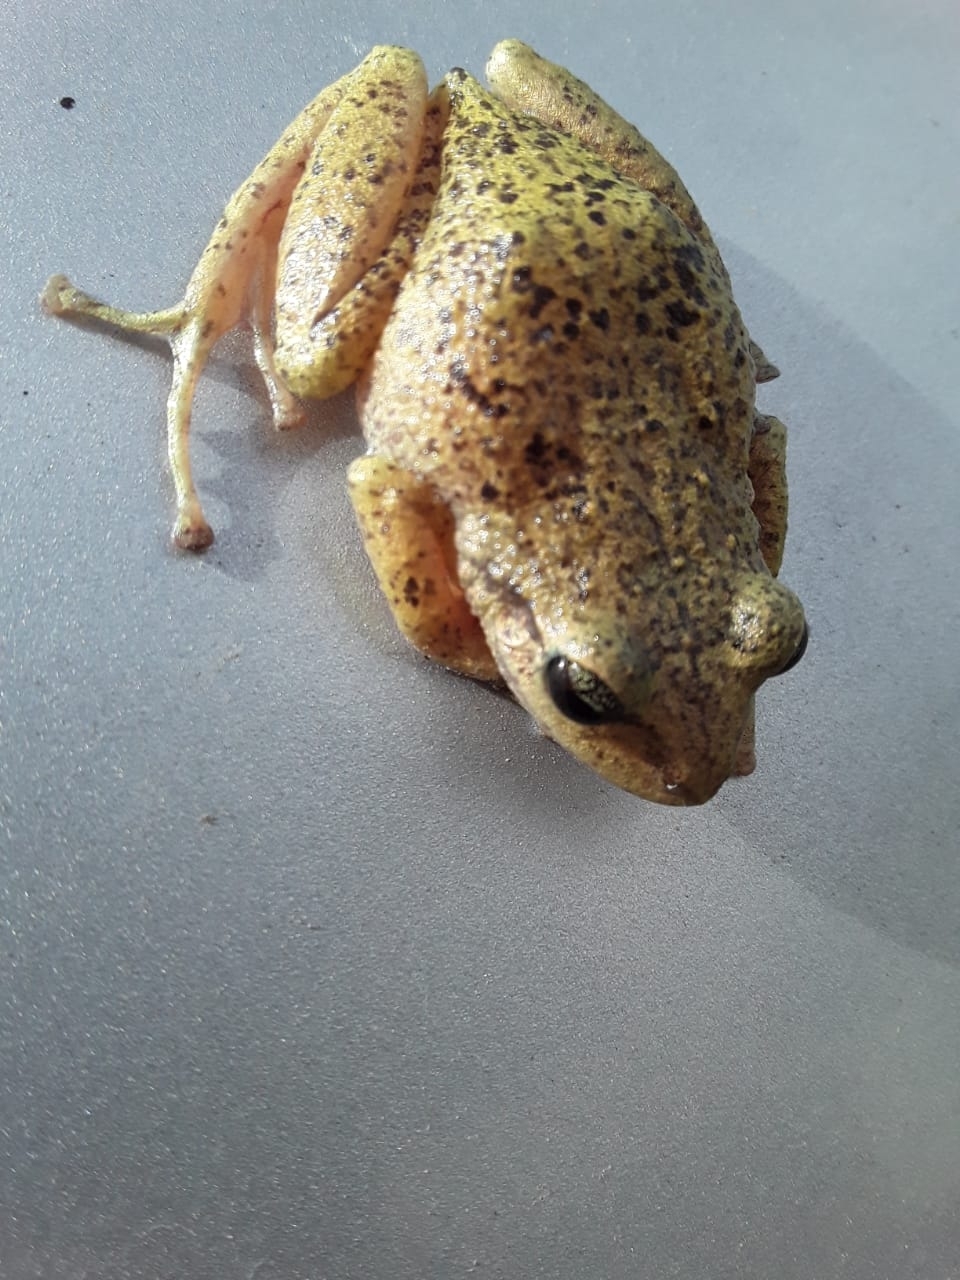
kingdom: Animalia
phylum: Chordata
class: Amphibia
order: Anura
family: Craugastoridae
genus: Pristimantis
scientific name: Pristimantis unistrigatus
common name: Striped robber frog
